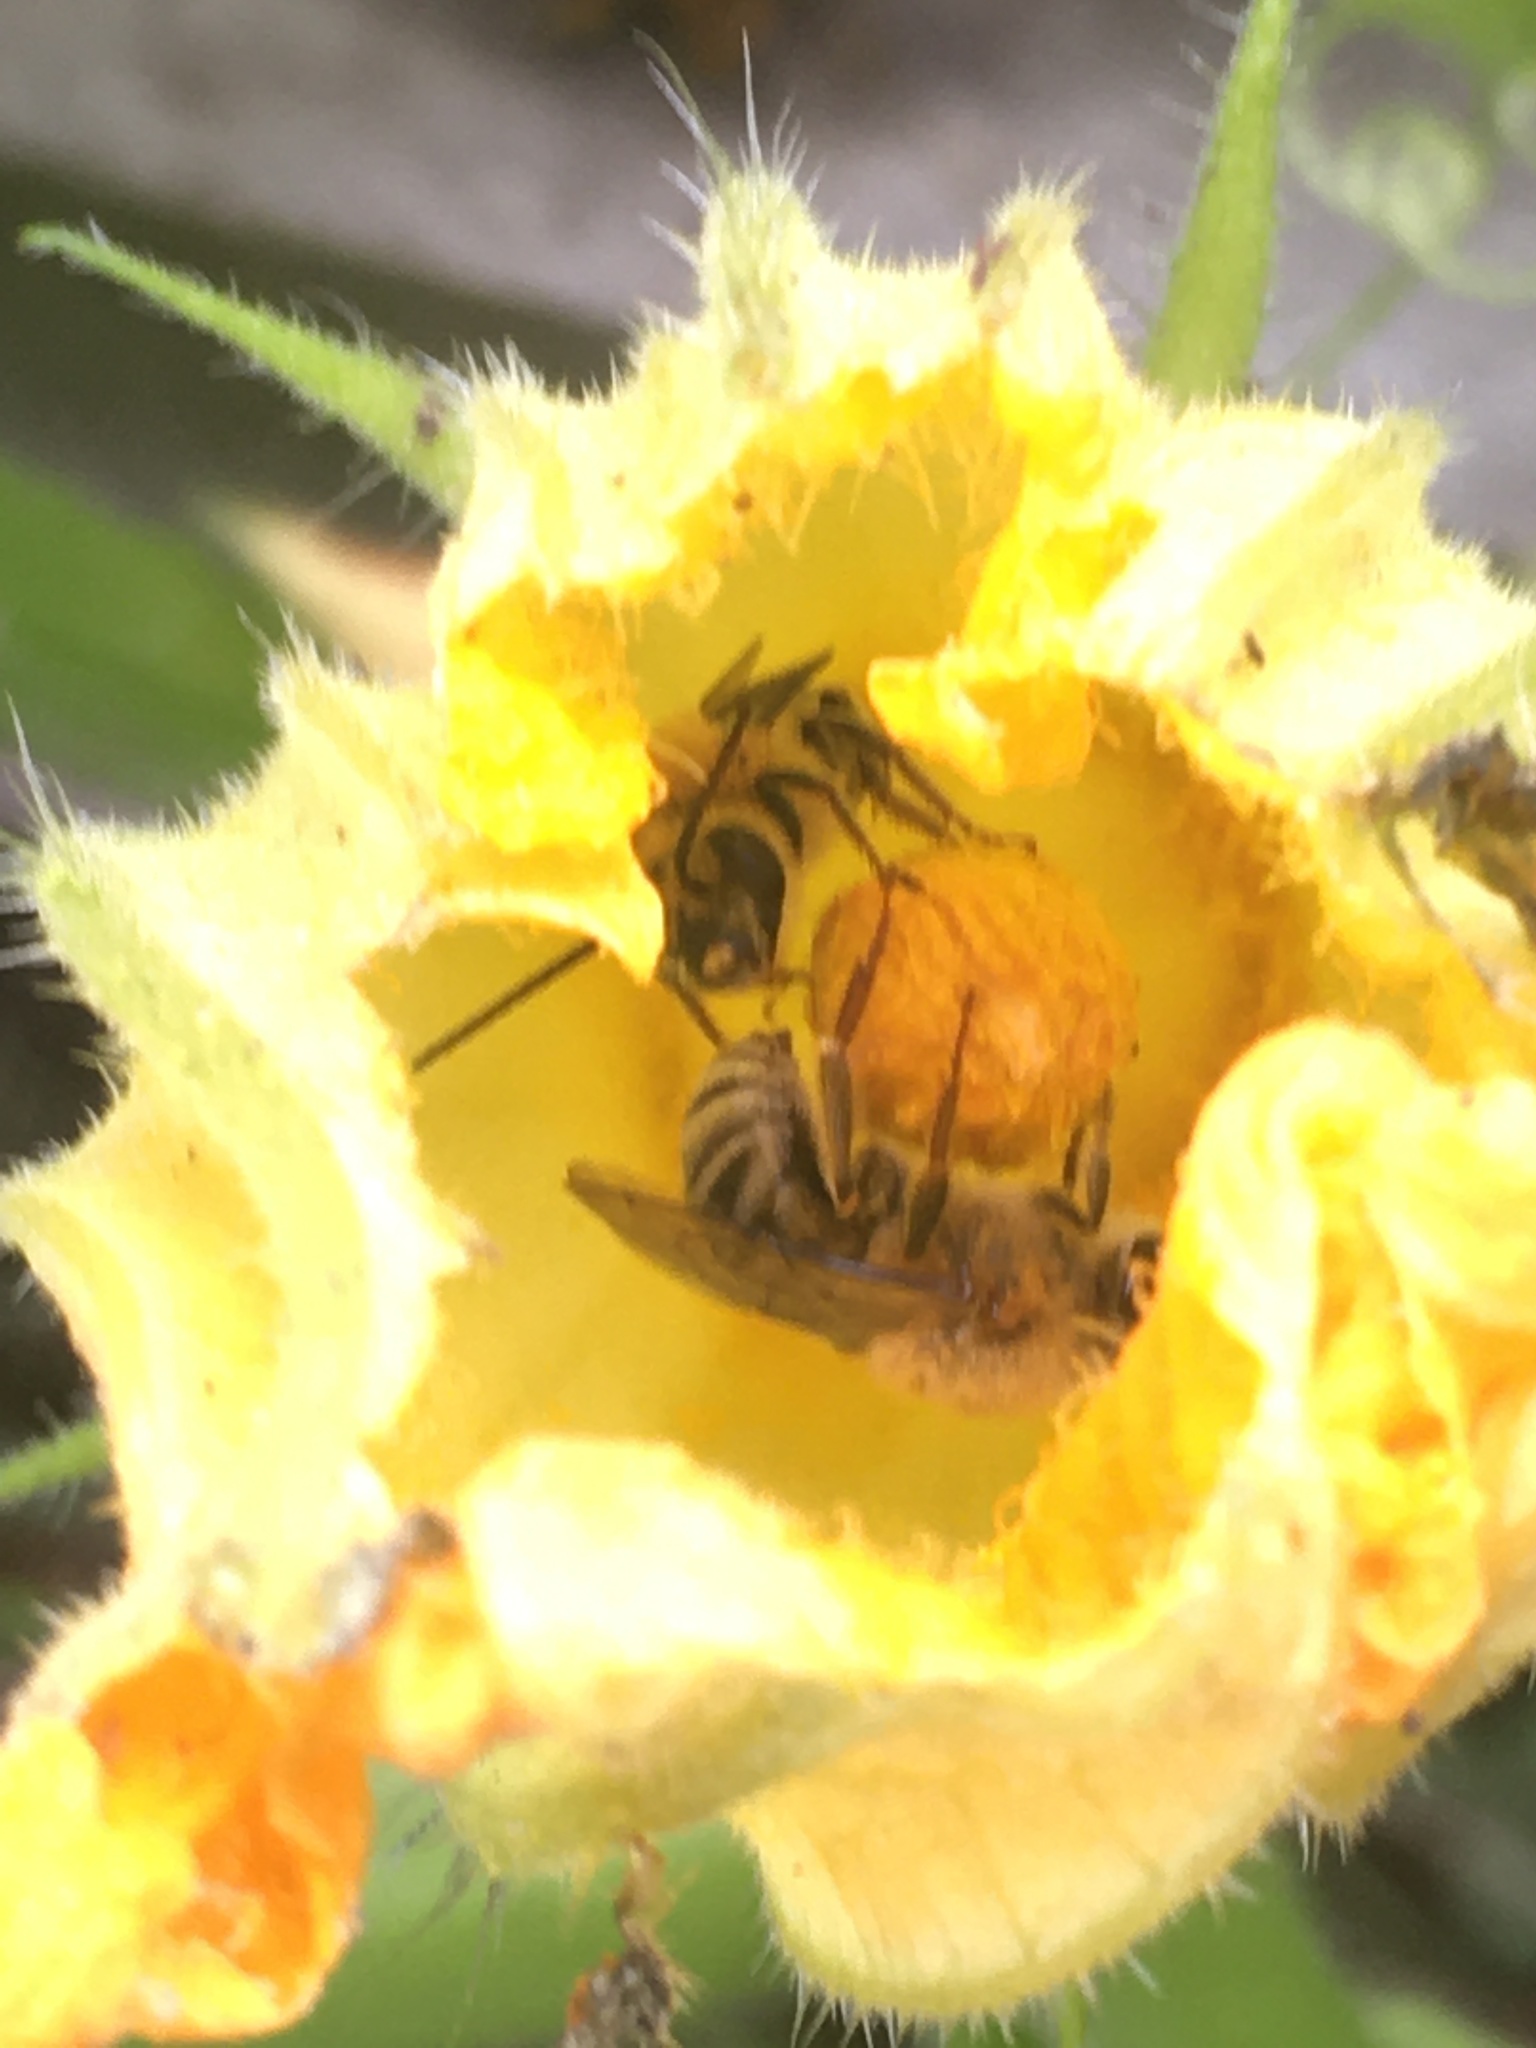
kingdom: Animalia
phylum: Arthropoda
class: Insecta
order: Hymenoptera
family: Apidae
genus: Peponapis
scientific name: Peponapis pruinosa
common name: Pruinose squash bee
